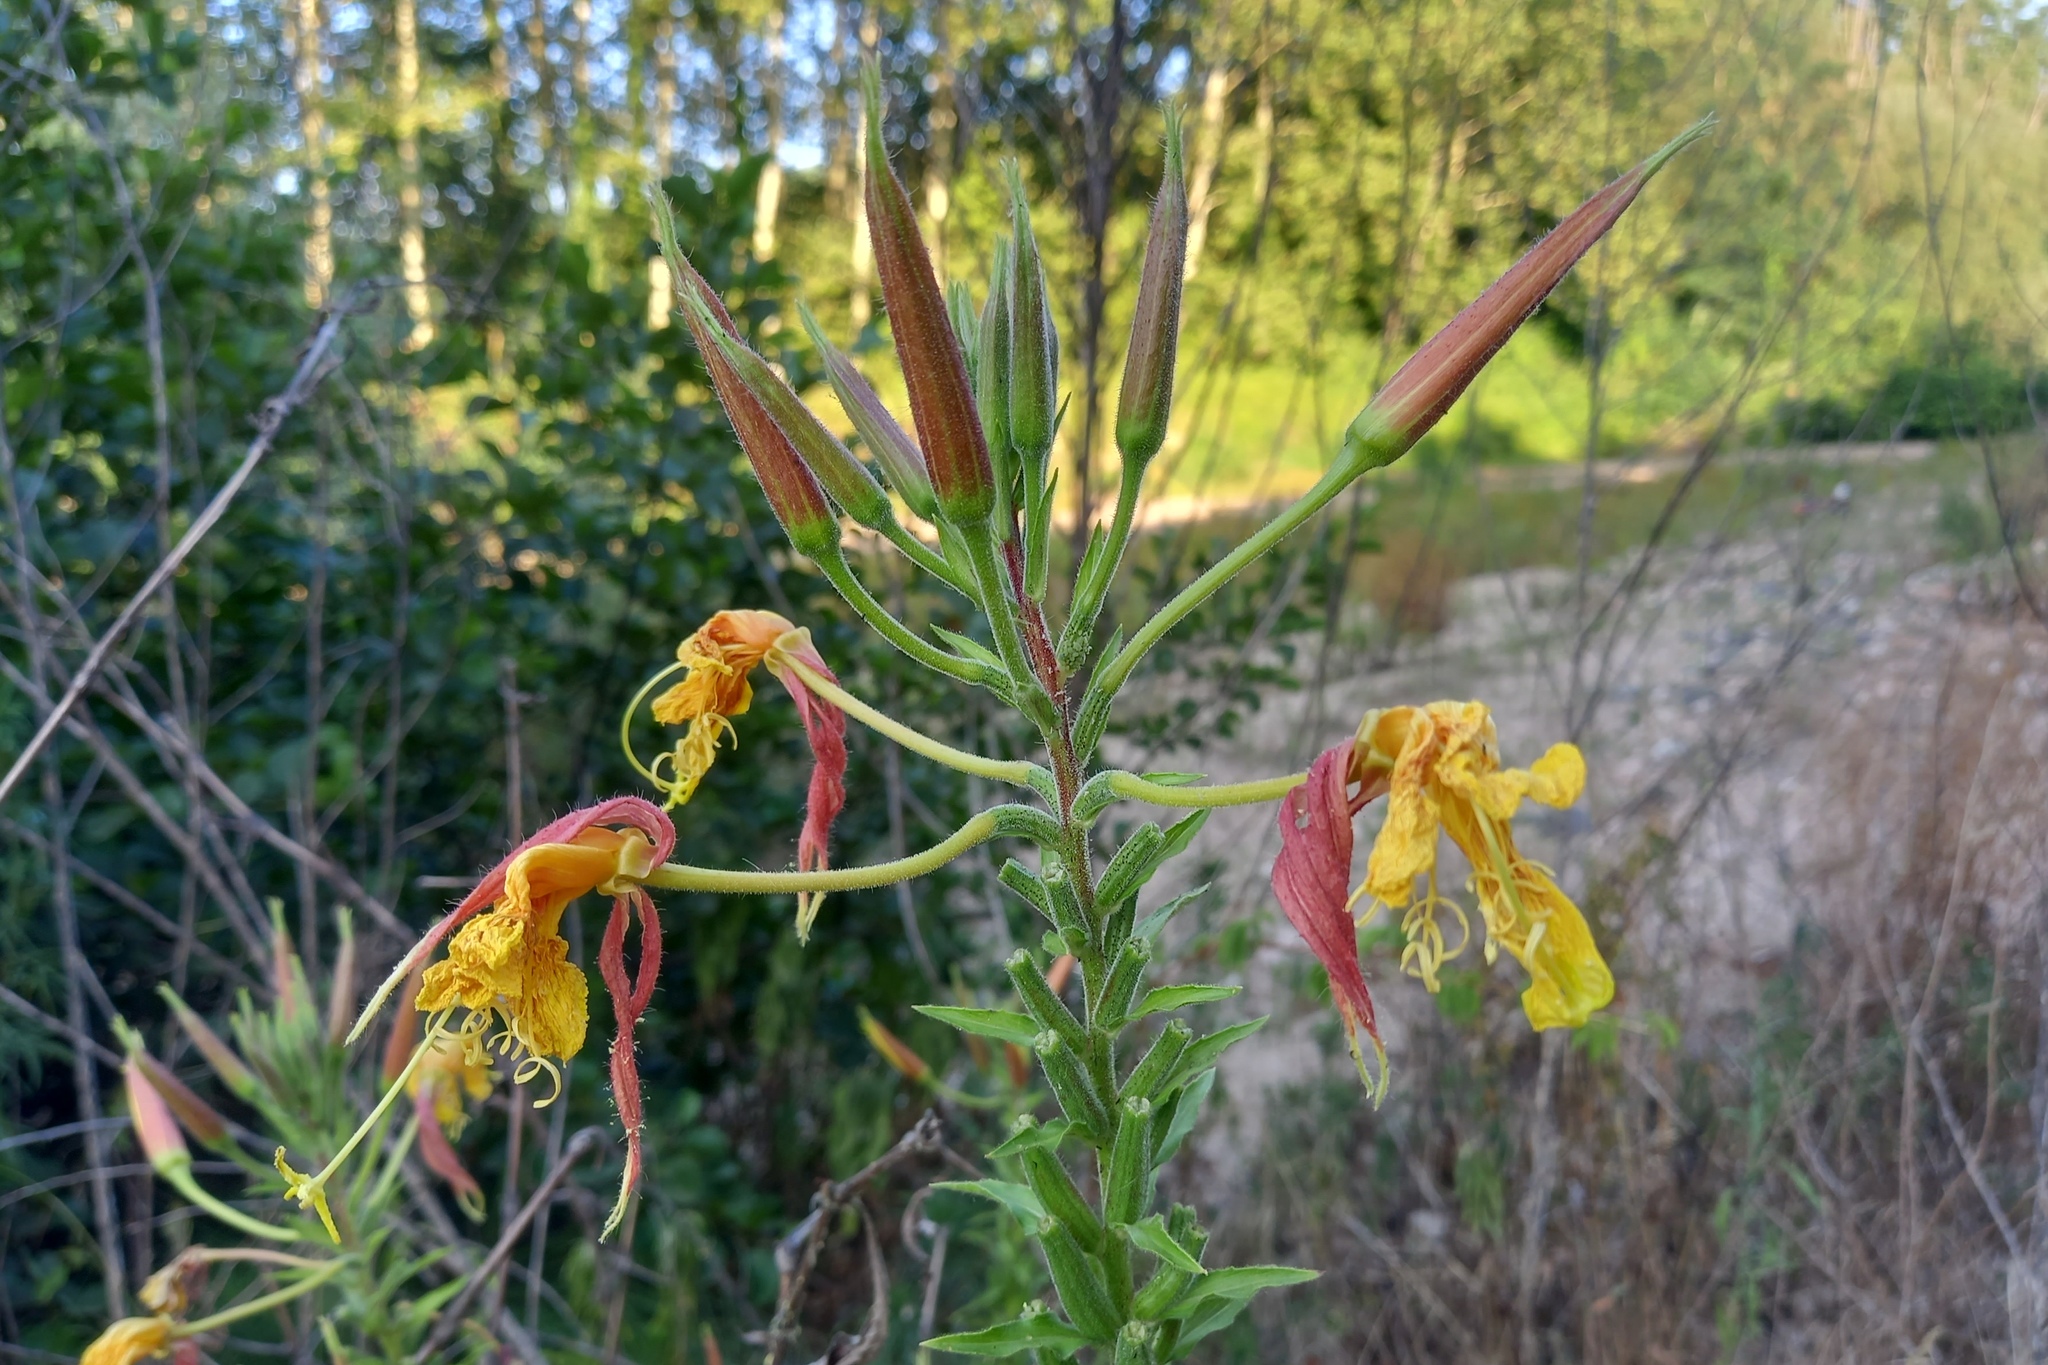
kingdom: Plantae
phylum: Tracheophyta
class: Magnoliopsida
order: Myrtales
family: Onagraceae
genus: Oenothera
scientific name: Oenothera glazioviana
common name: Large-flowered evening-primrose
